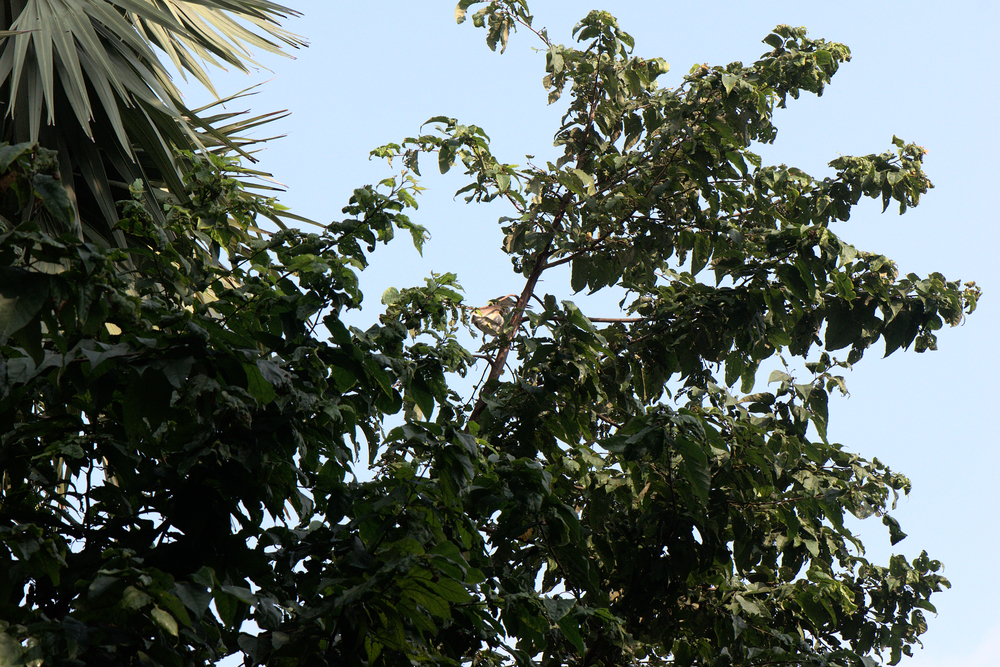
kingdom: Animalia
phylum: Chordata
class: Aves
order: Pelecaniformes
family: Ardeidae
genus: Ardeola
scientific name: Ardeola grayii
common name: Indian pond heron
